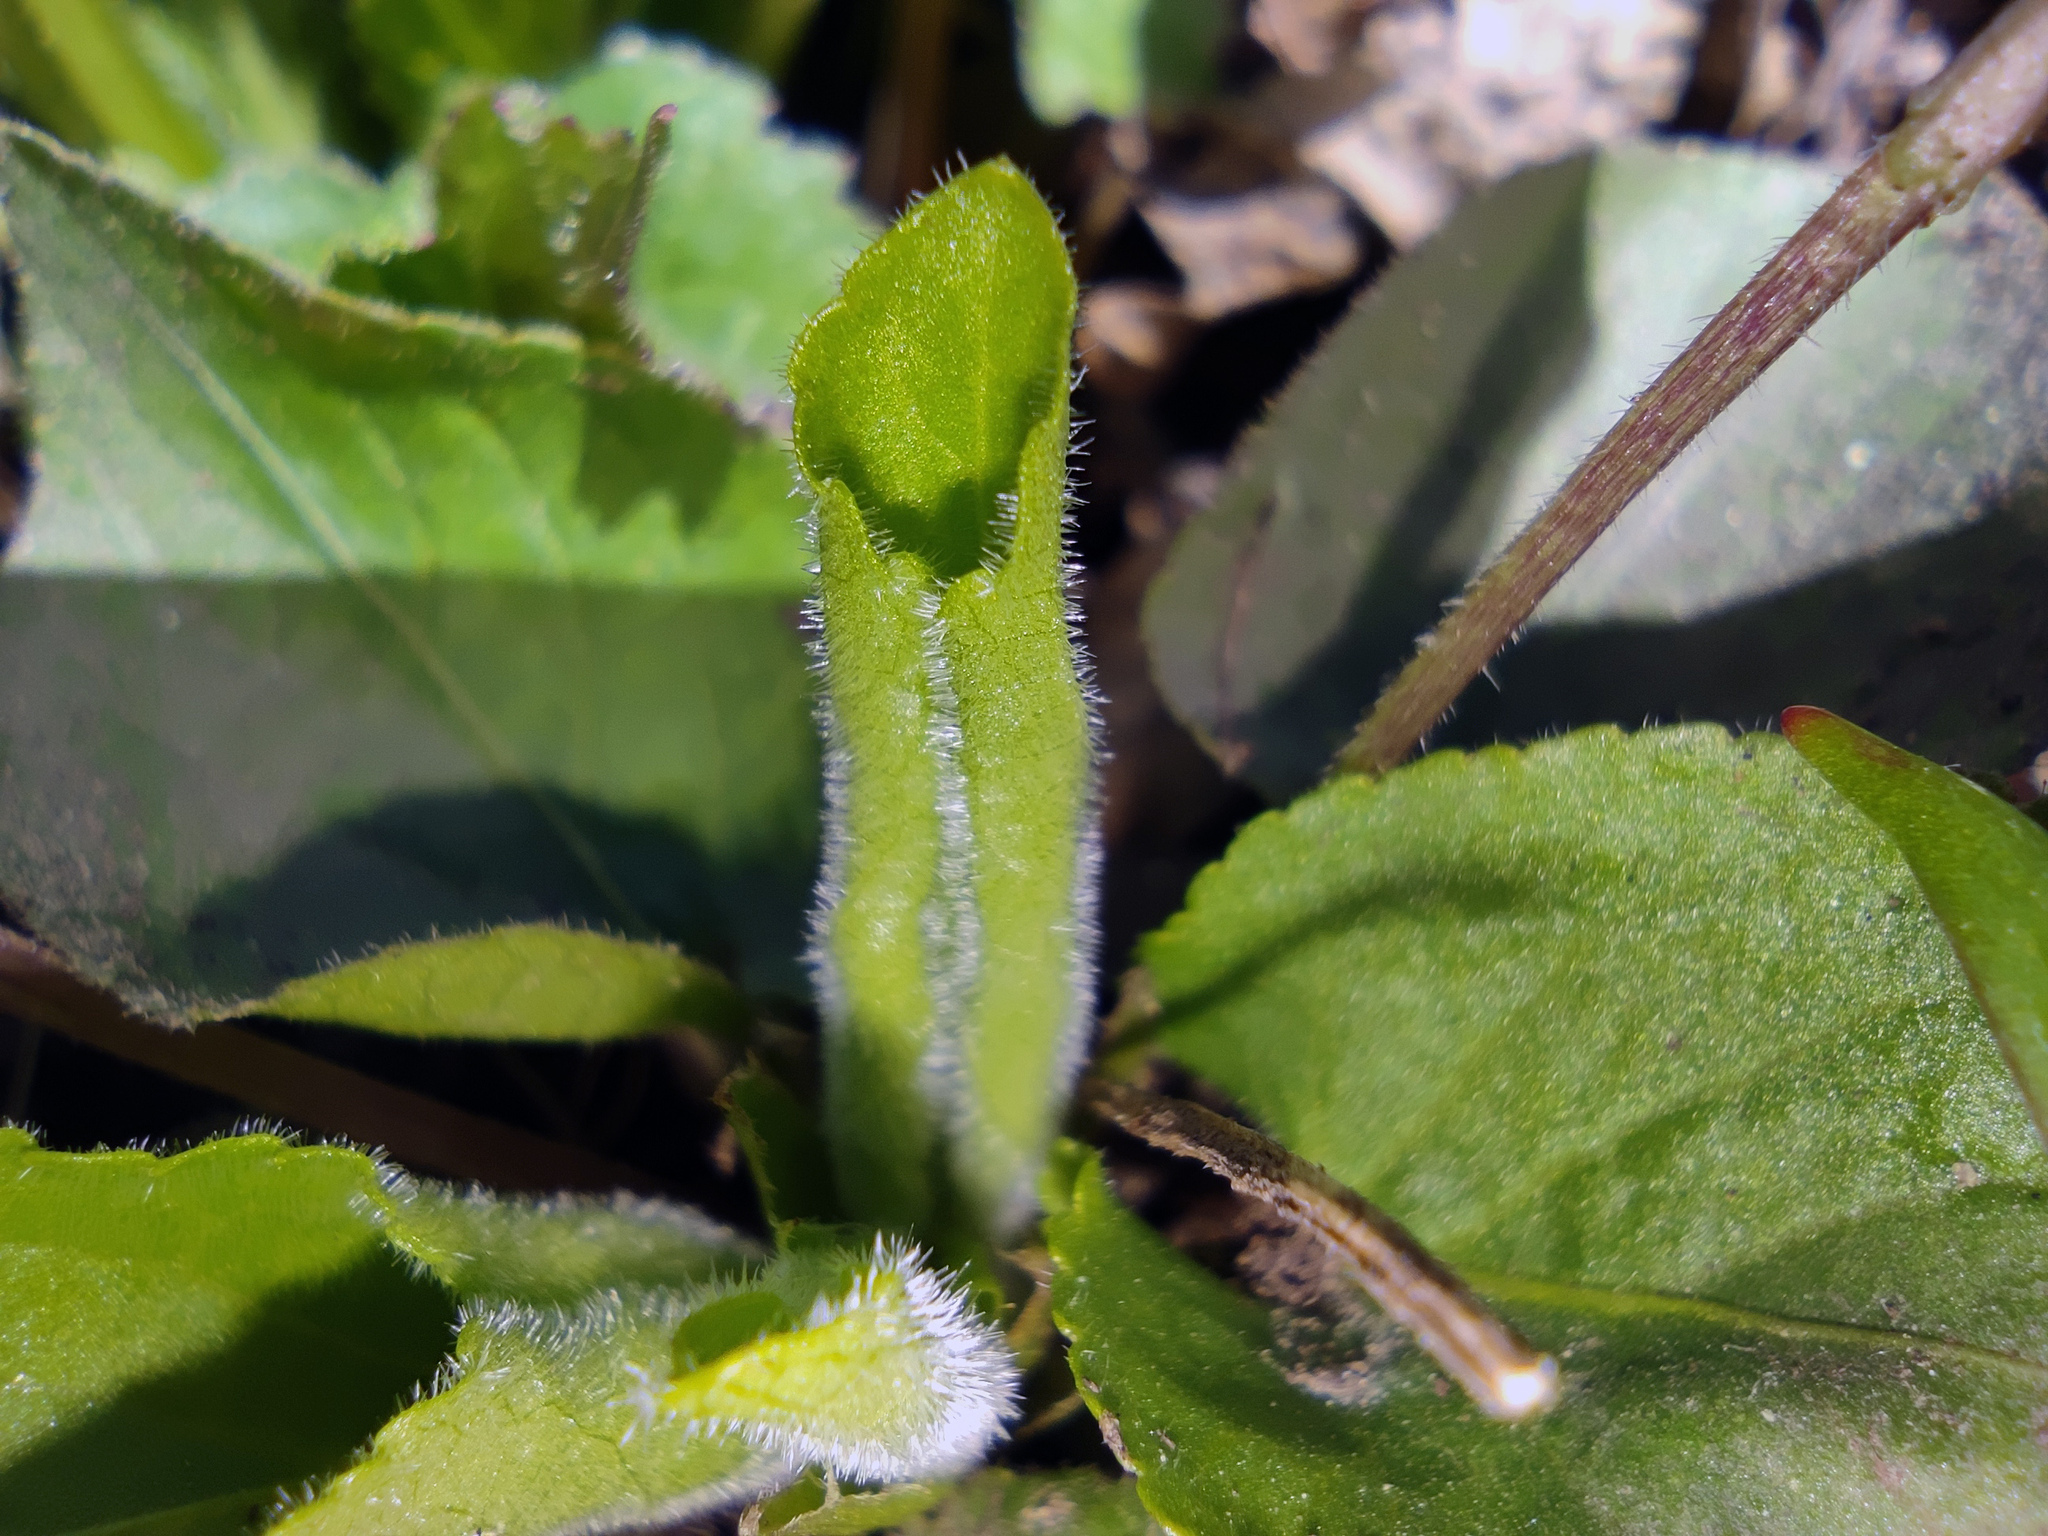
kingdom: Plantae
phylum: Tracheophyta
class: Magnoliopsida
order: Malpighiales
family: Violaceae
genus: Viola
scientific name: Viola hirta
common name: Hairy violet
